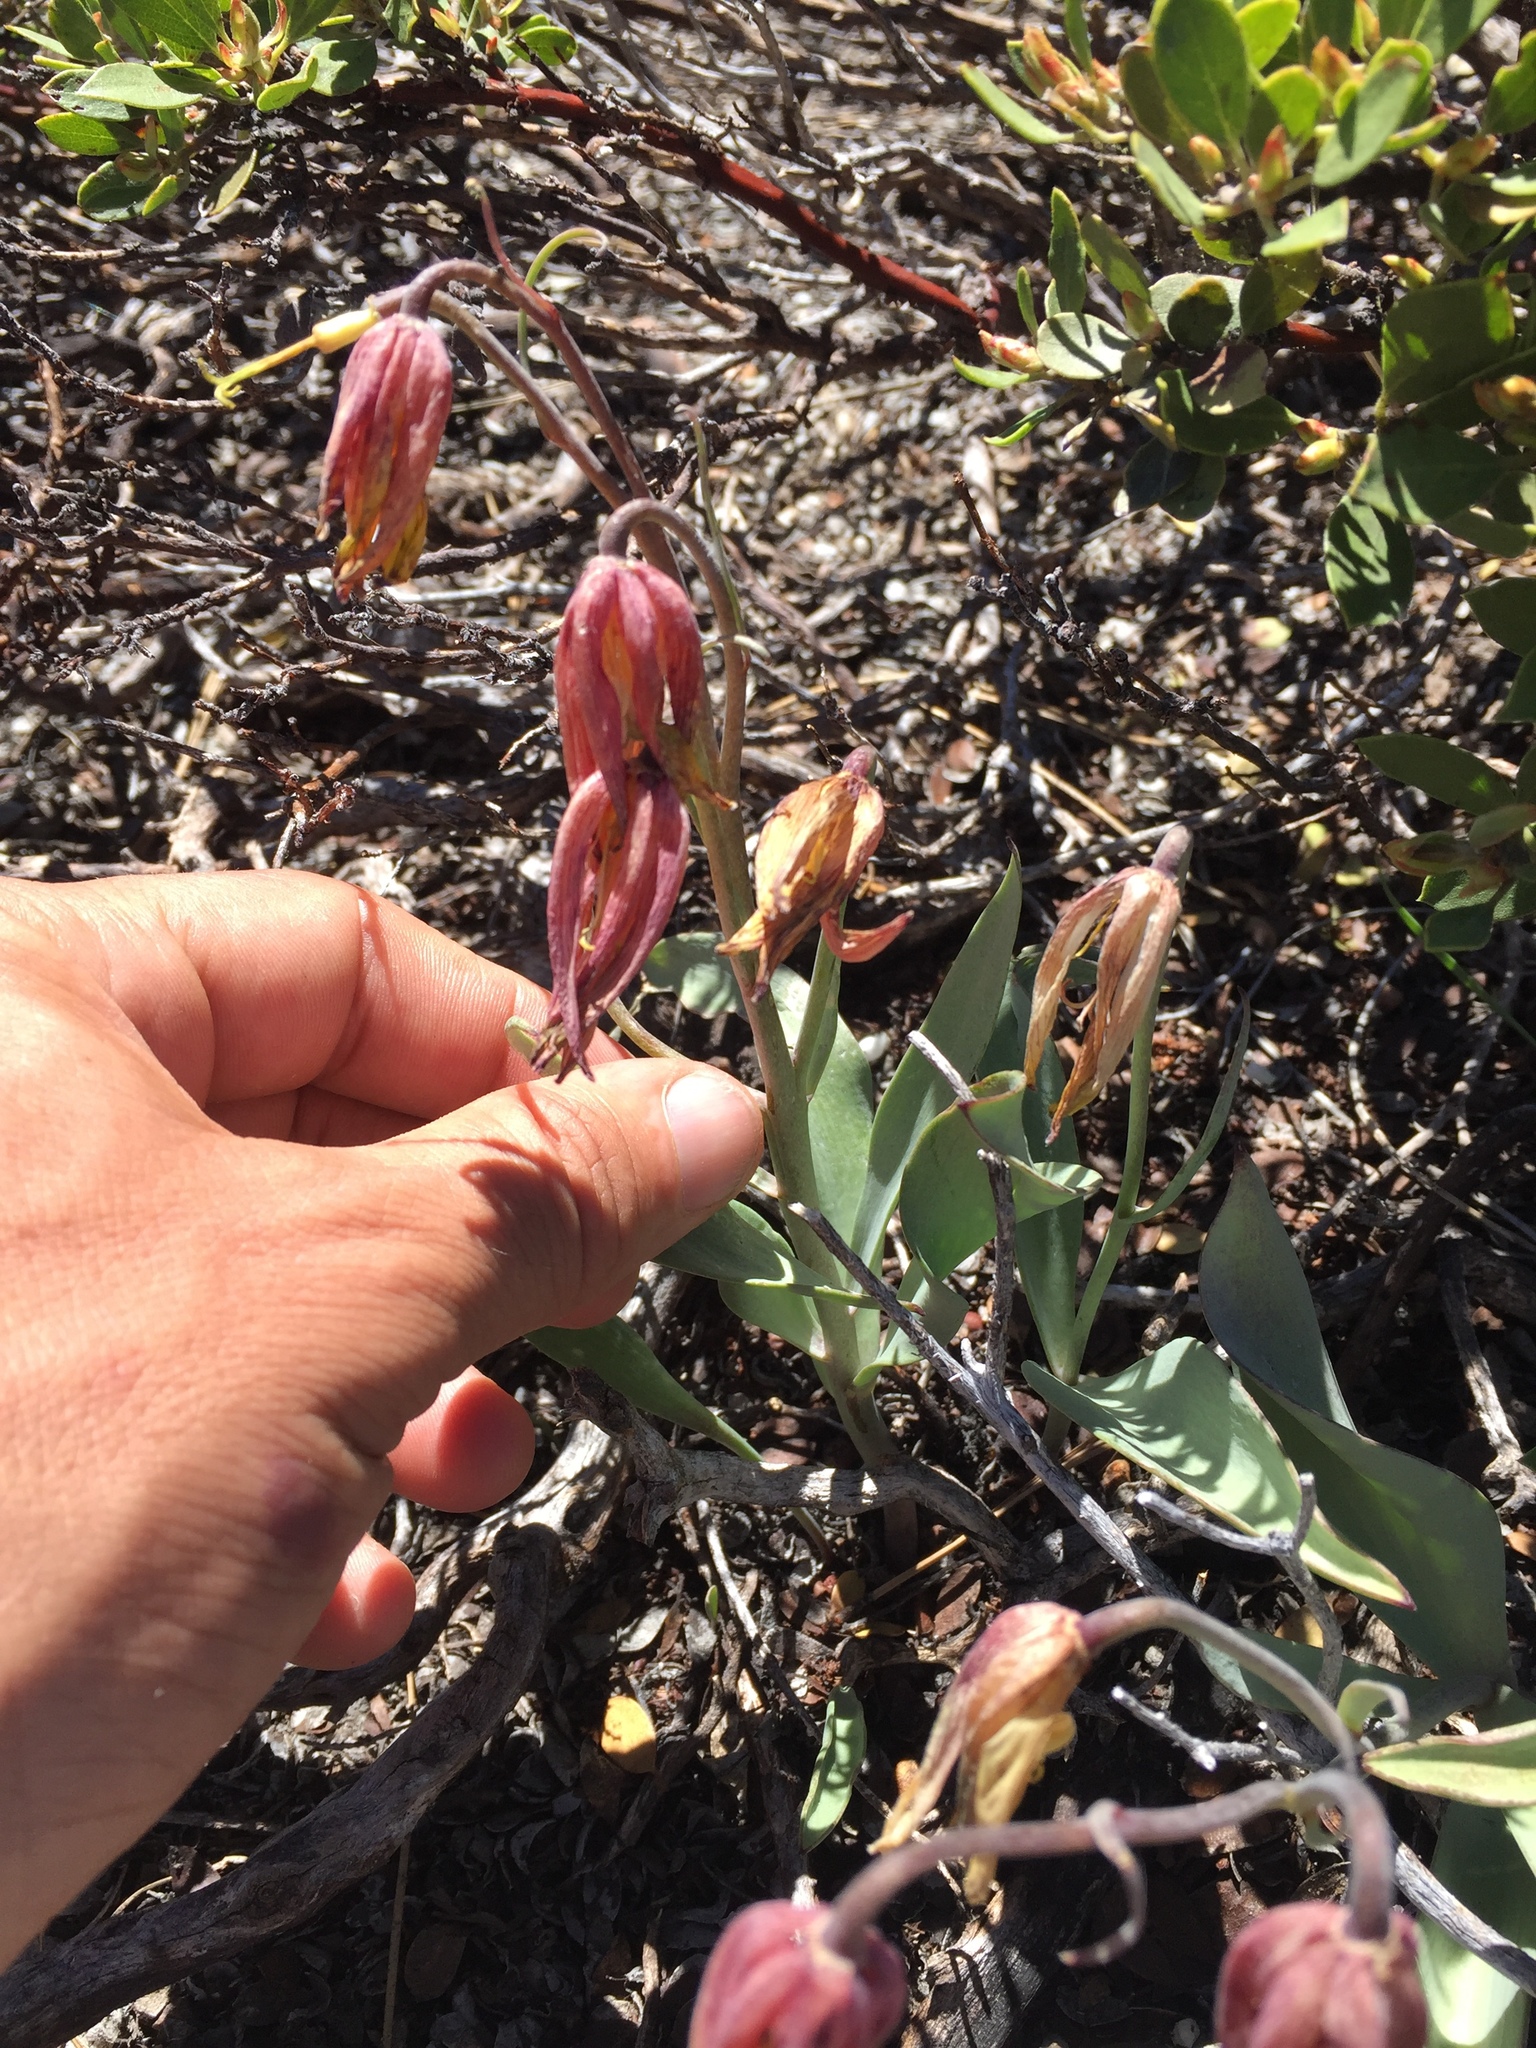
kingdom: Plantae
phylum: Tracheophyta
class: Liliopsida
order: Liliales
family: Liliaceae
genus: Fritillaria
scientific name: Fritillaria purdyi
